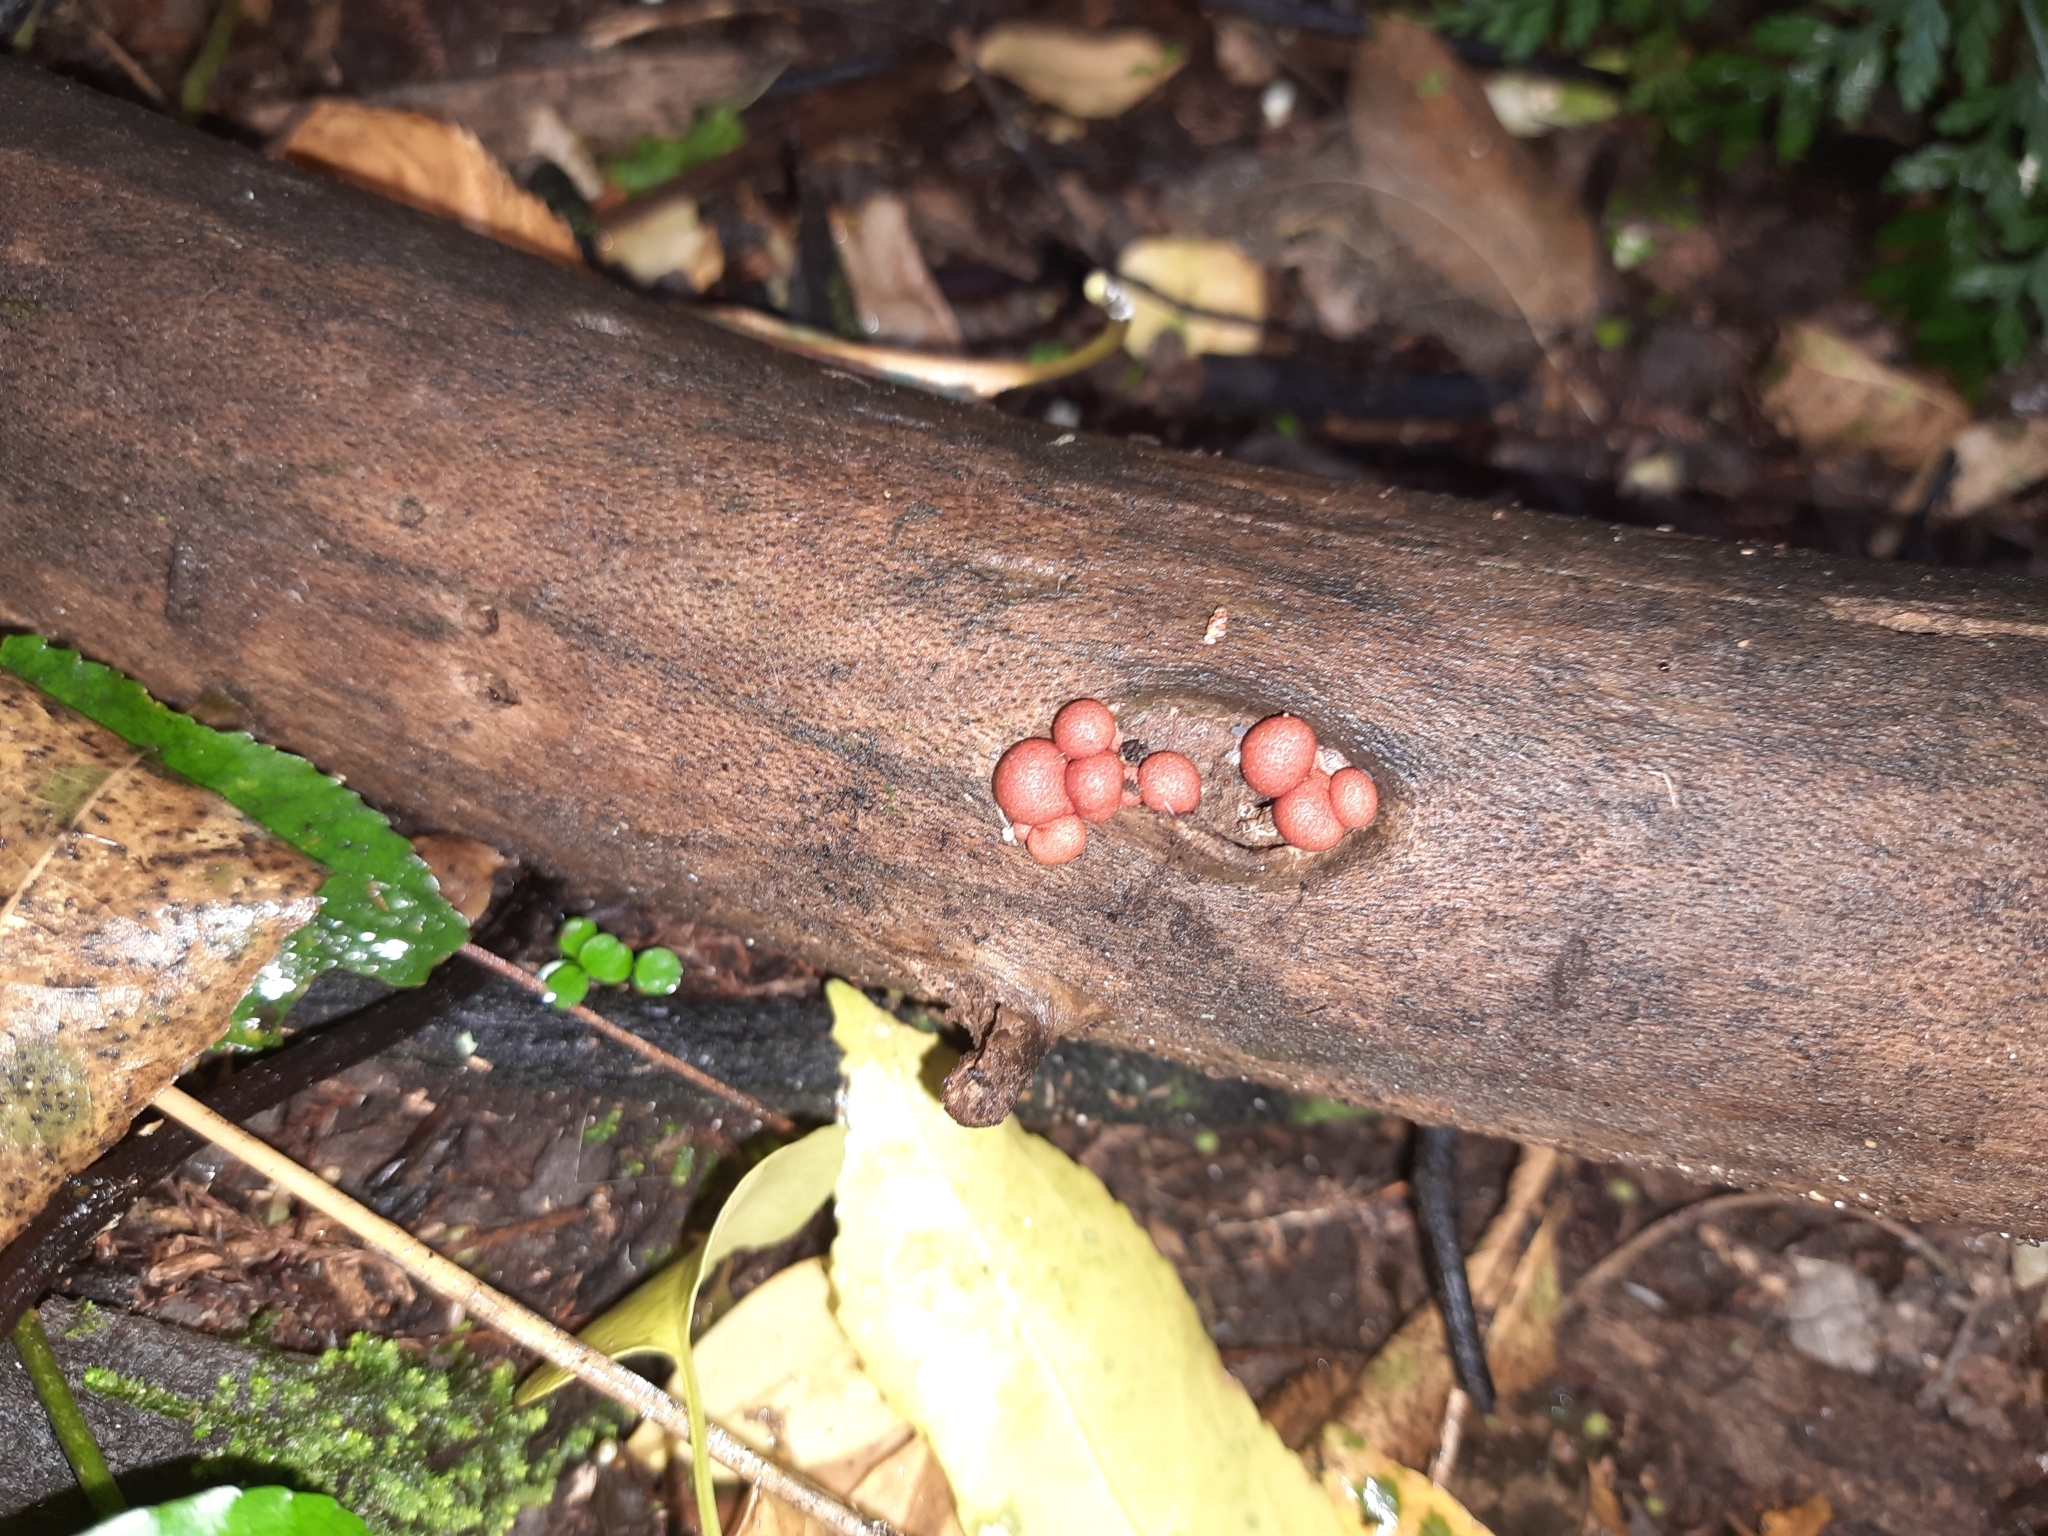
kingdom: Protozoa
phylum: Mycetozoa
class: Myxomycetes
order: Cribrariales
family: Tubiferaceae
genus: Lycogala
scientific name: Lycogala epidendrum
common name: Wolf's milk
